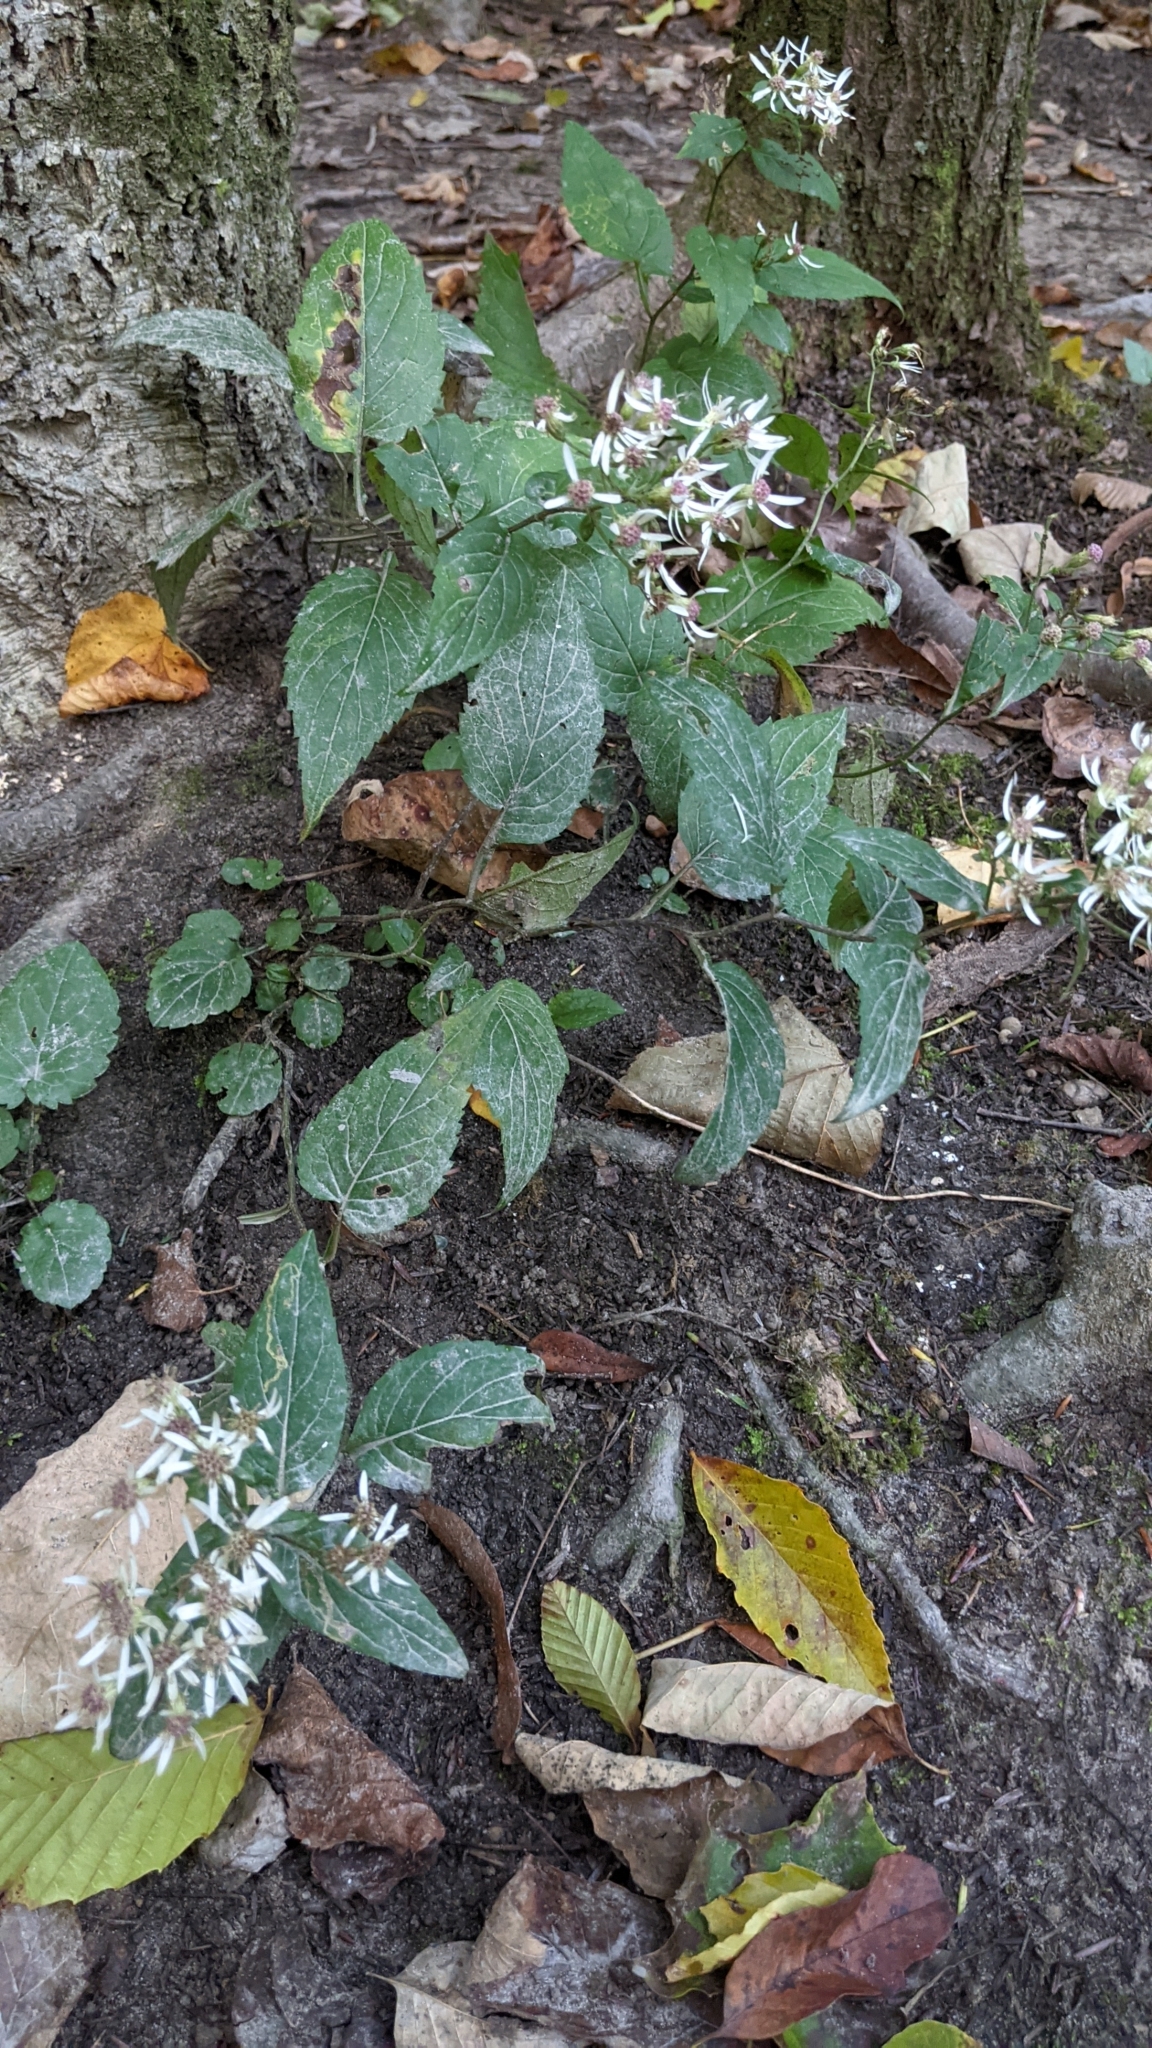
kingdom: Plantae
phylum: Tracheophyta
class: Magnoliopsida
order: Asterales
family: Asteraceae
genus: Eurybia
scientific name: Eurybia divaricata
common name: White wood aster
